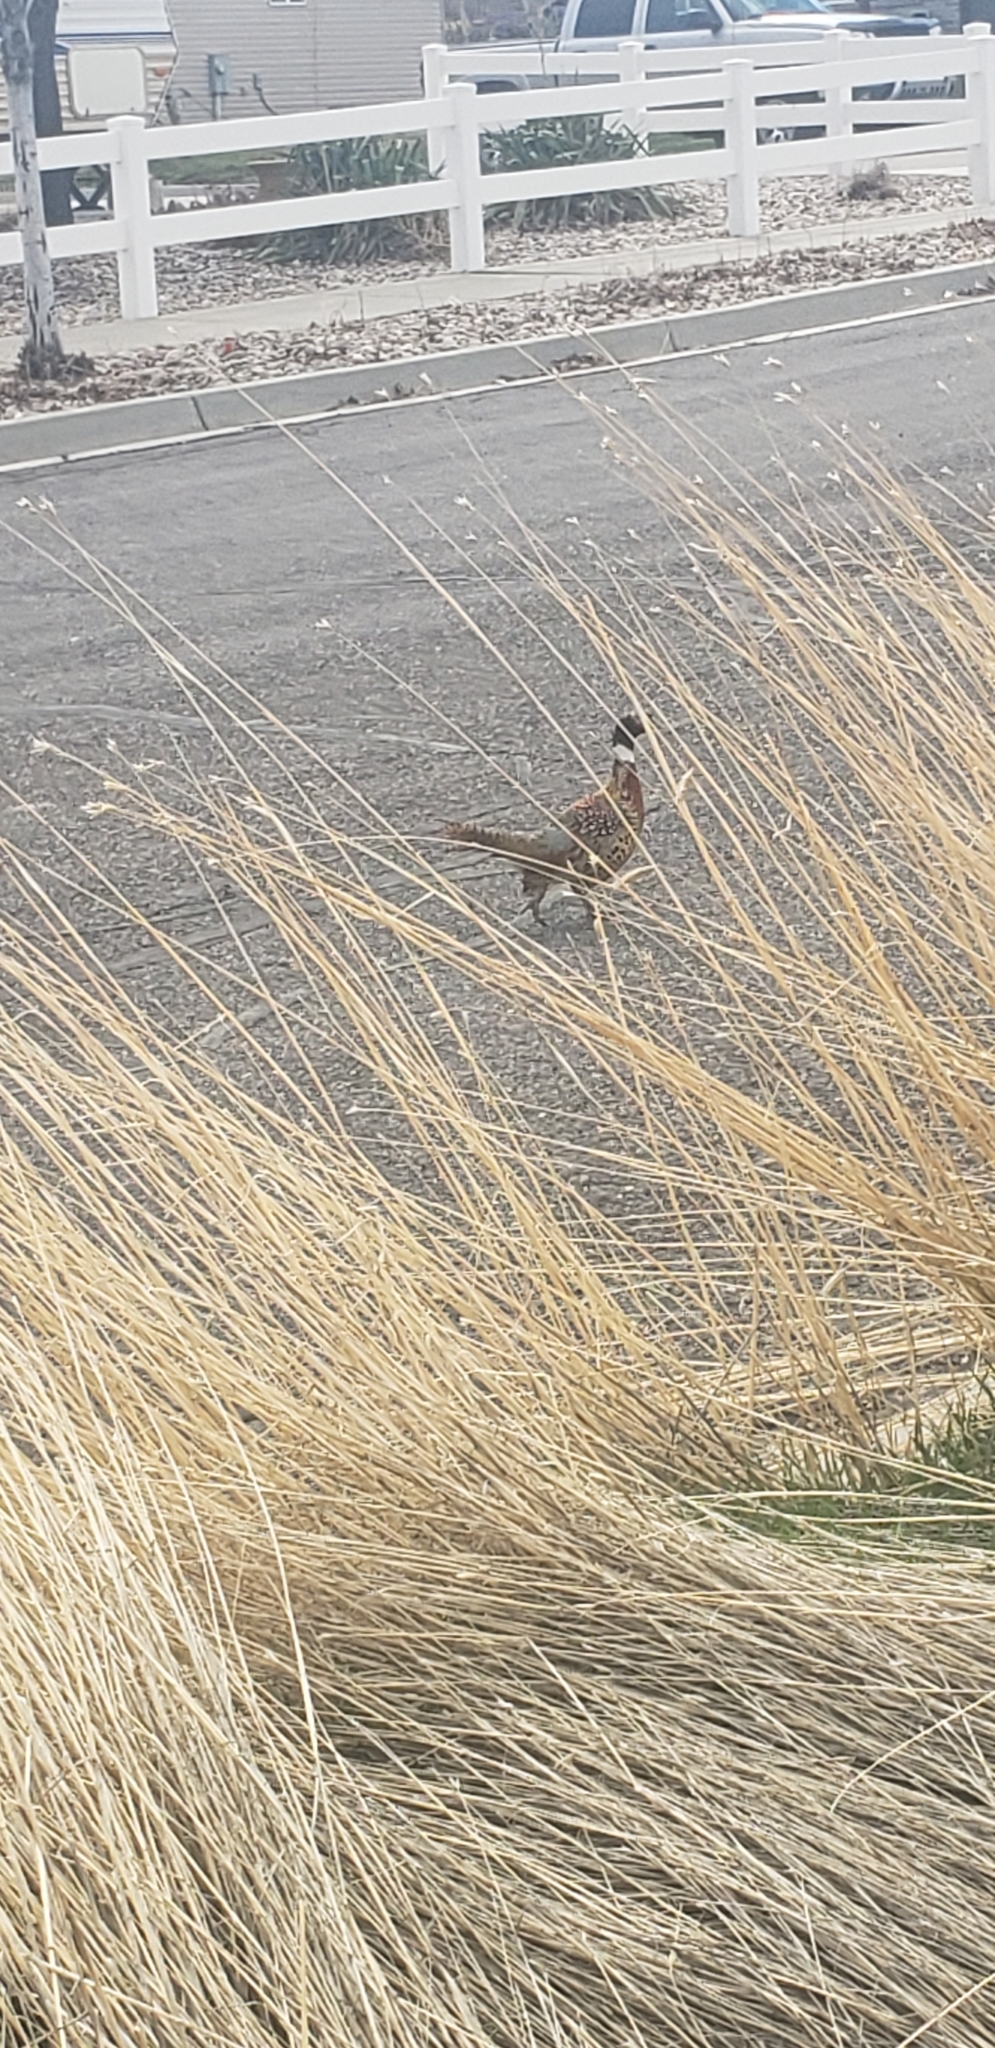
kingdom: Animalia
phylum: Chordata
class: Aves
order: Galliformes
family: Phasianidae
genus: Phasianus
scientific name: Phasianus colchicus
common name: Common pheasant
